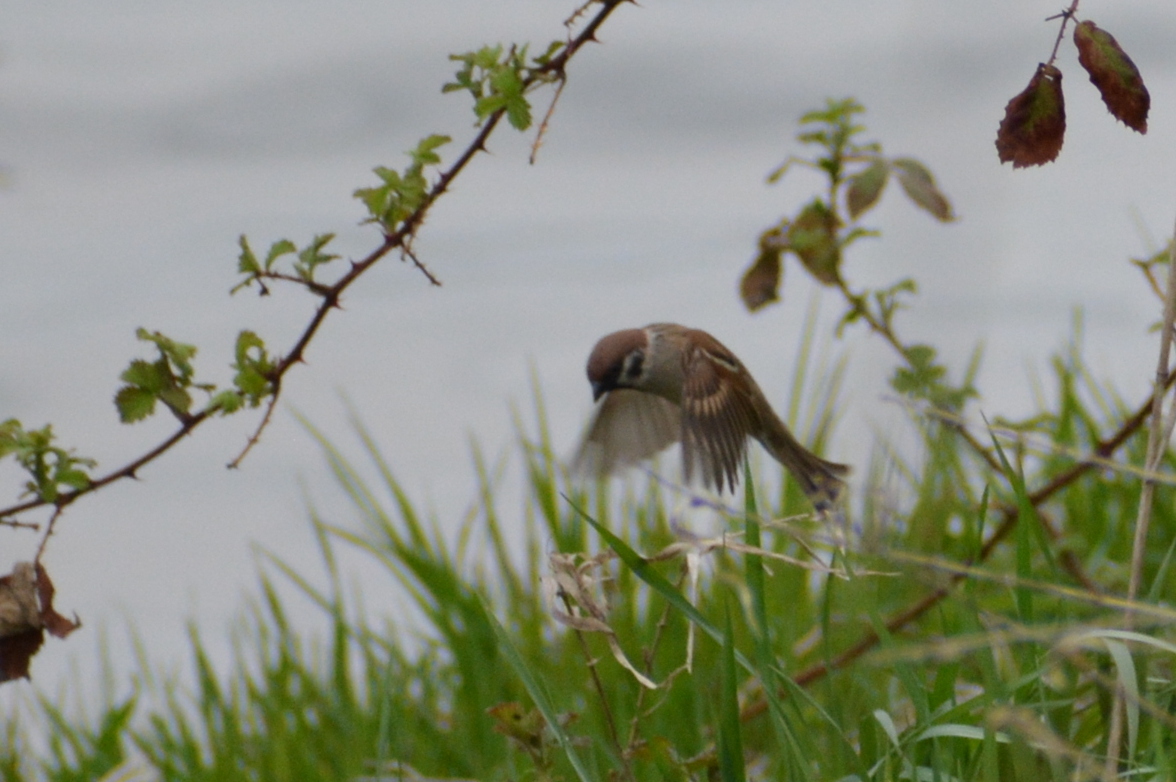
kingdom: Animalia
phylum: Chordata
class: Aves
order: Passeriformes
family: Passeridae
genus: Passer
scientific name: Passer montanus
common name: Eurasian tree sparrow
